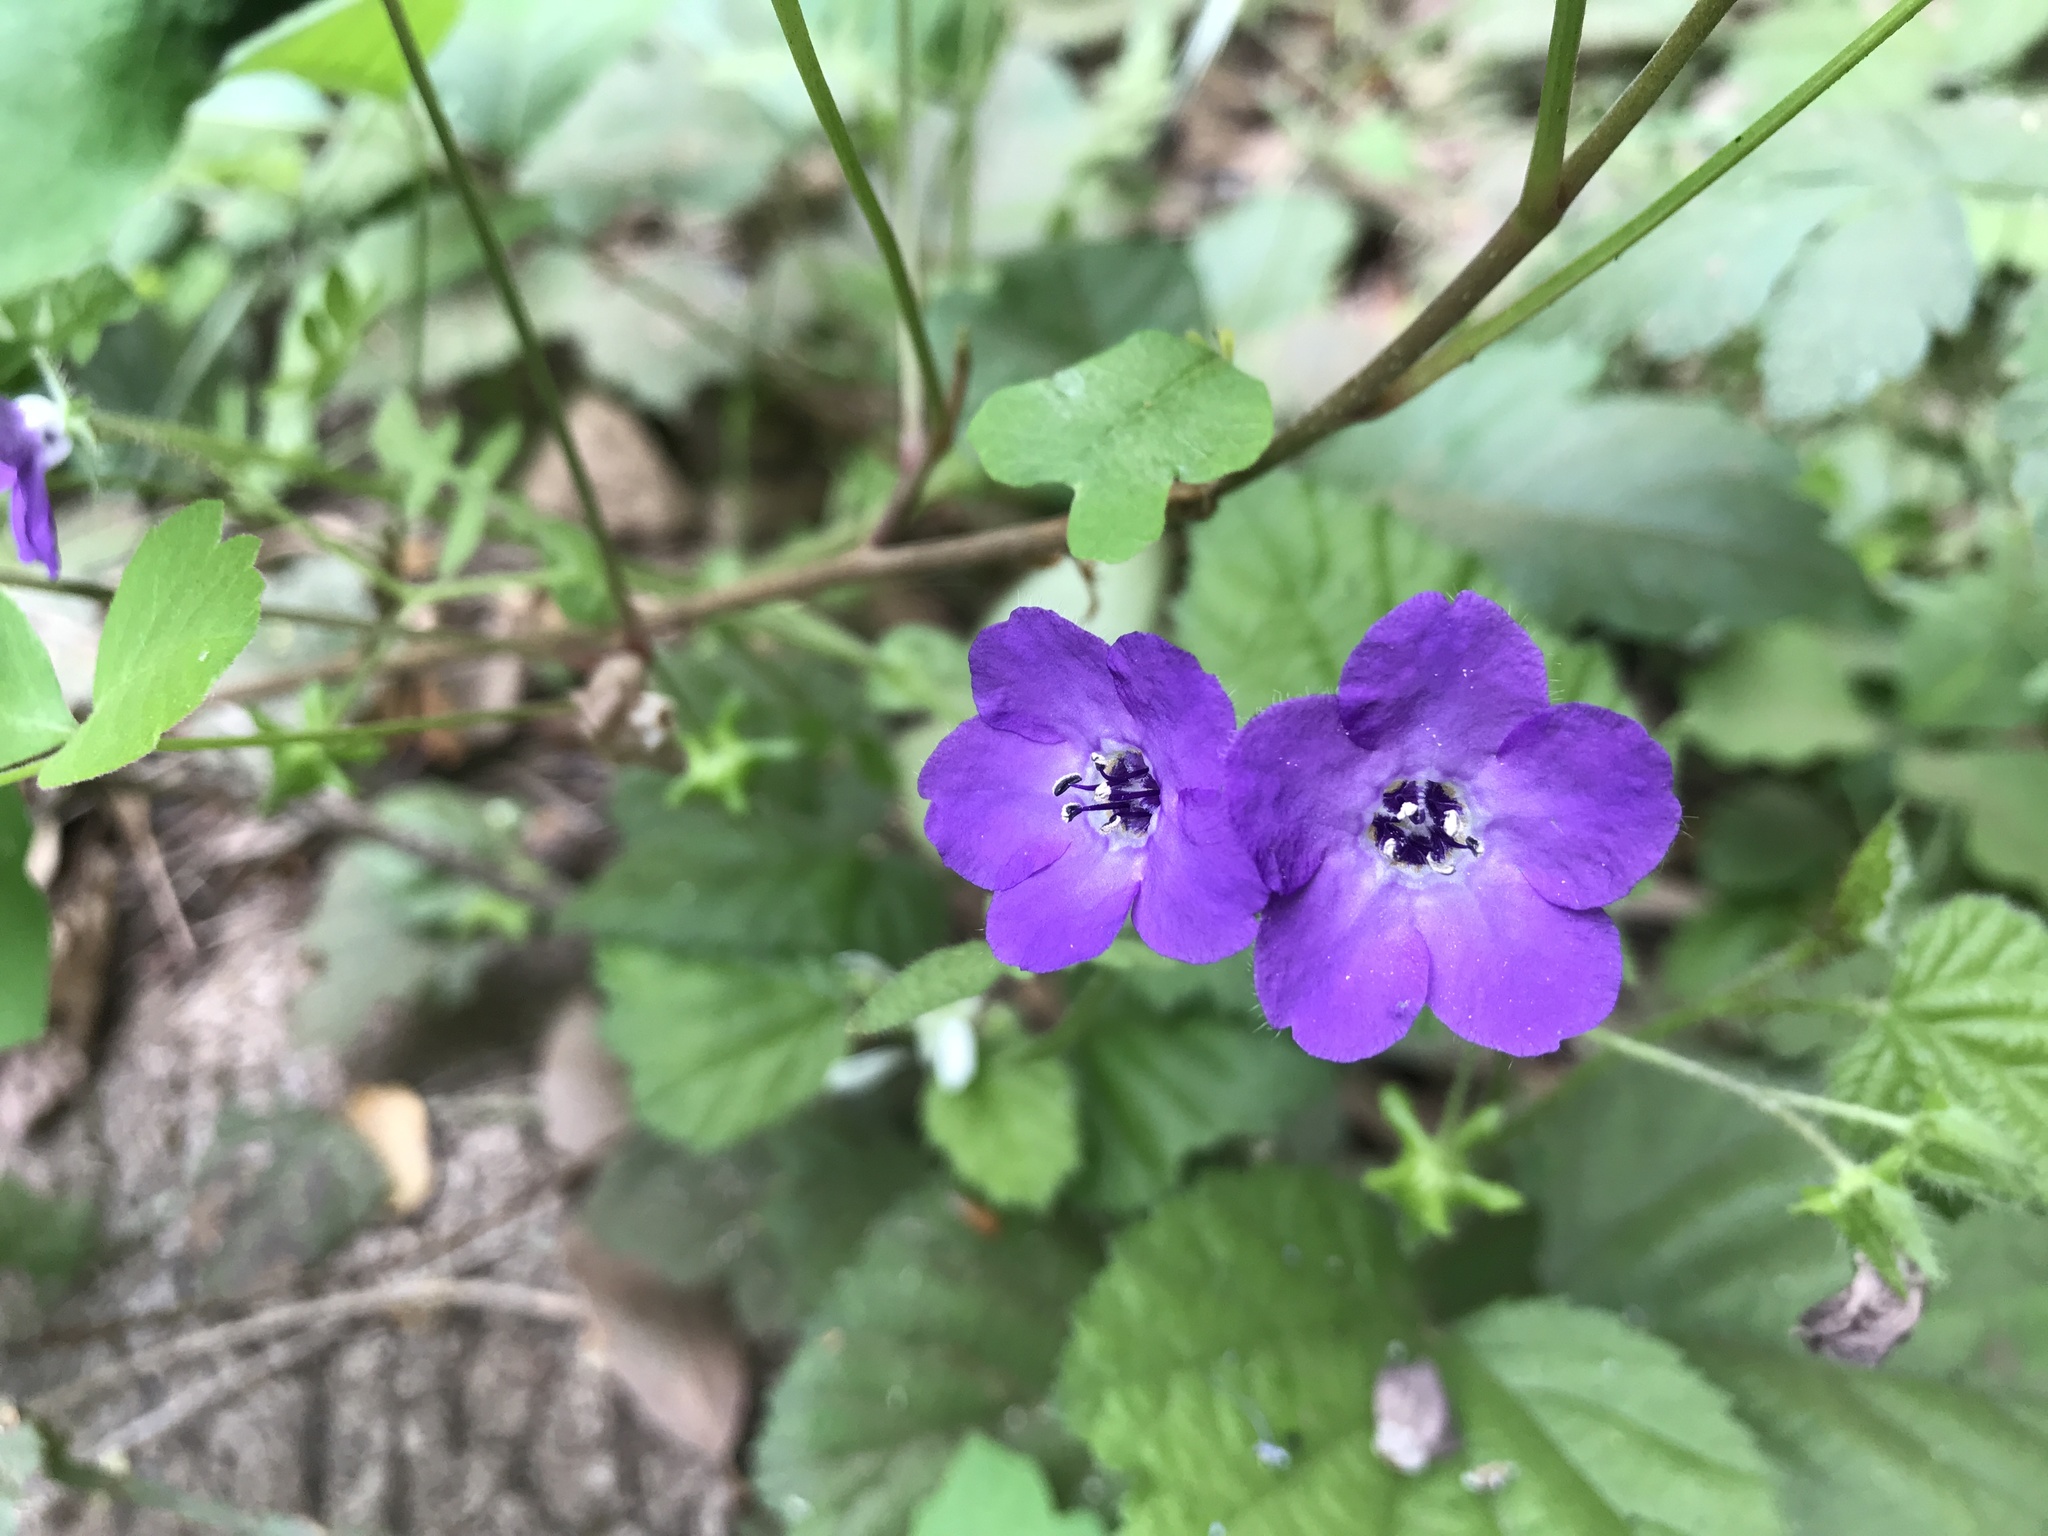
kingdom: Plantae
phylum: Tracheophyta
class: Magnoliopsida
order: Boraginales
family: Hydrophyllaceae
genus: Pholistoma
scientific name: Pholistoma auritum
